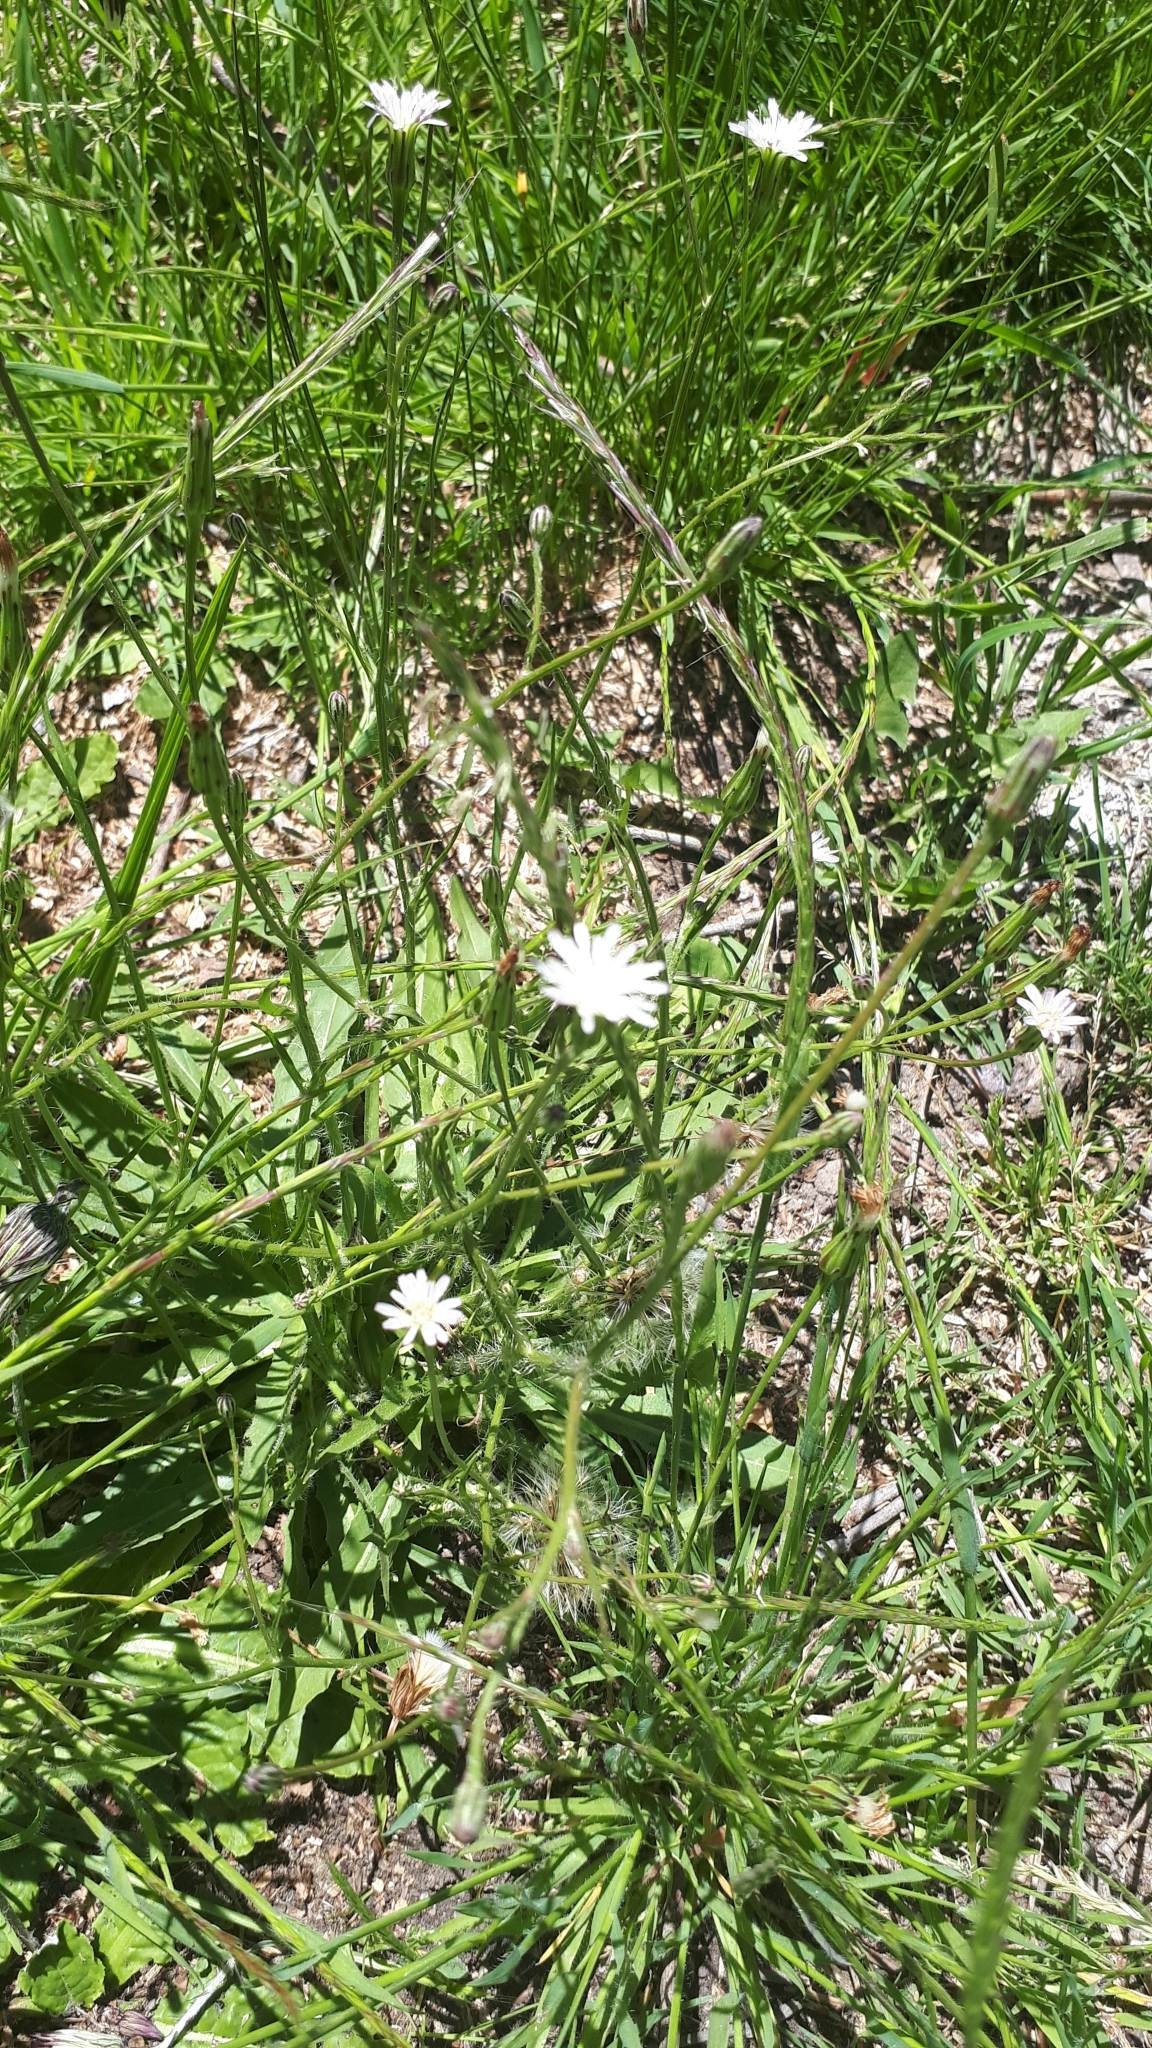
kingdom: Plantae
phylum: Tracheophyta
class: Magnoliopsida
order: Asterales
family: Asteraceae
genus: Hypochaeris
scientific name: Hypochaeris albiflora
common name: White flatweed
